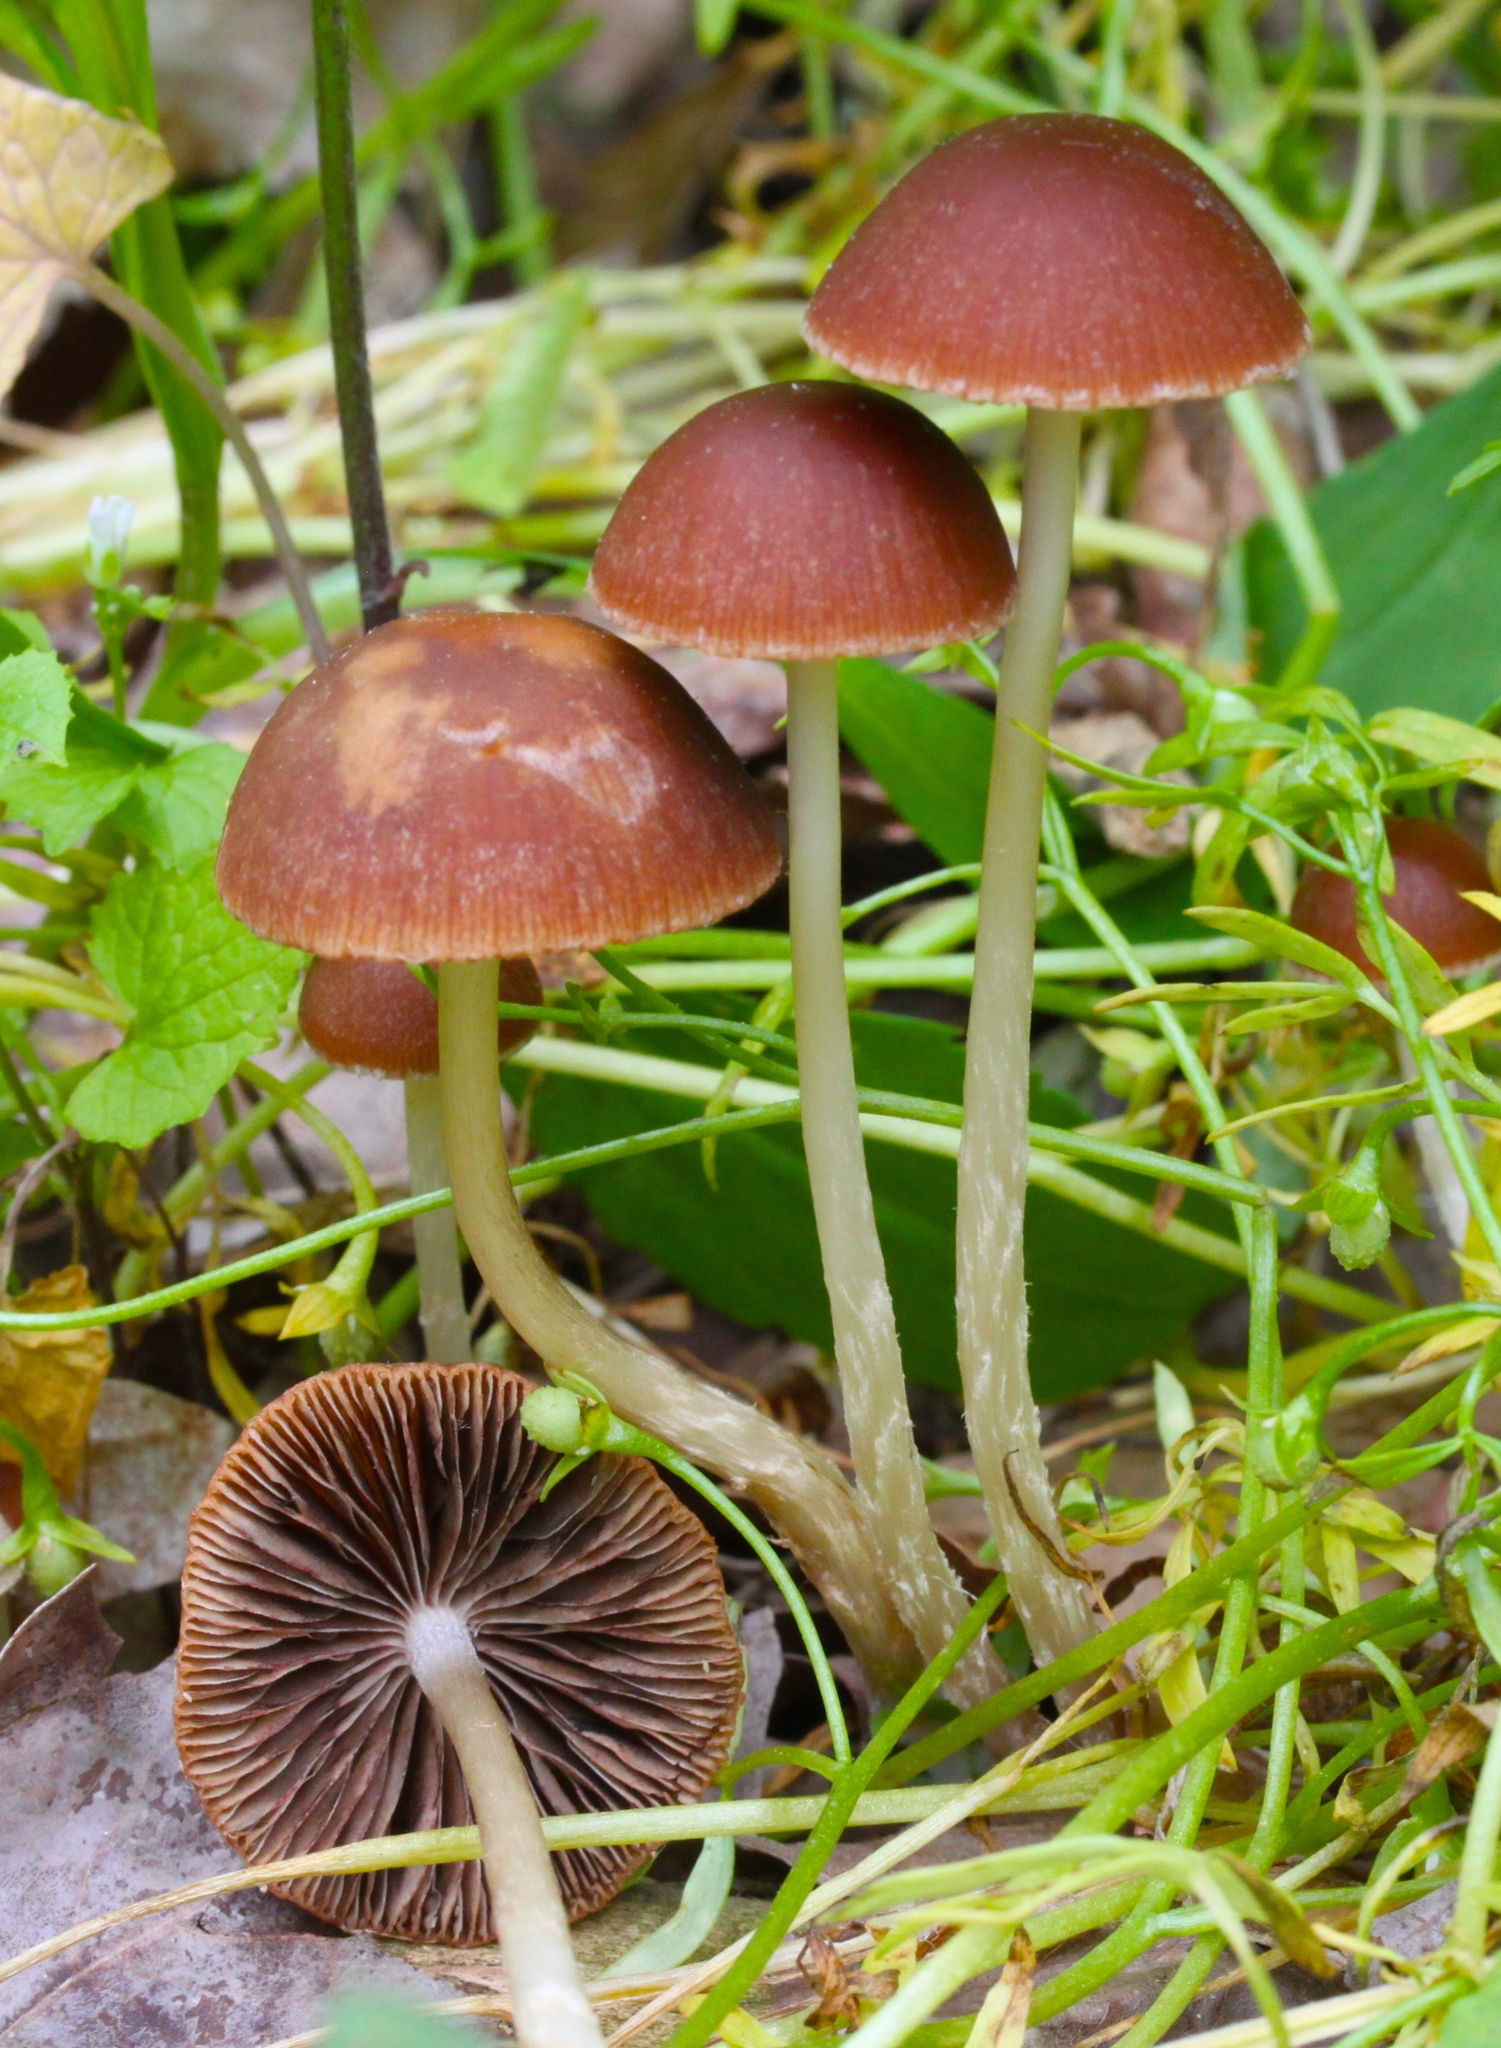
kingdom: Fungi
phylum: Basidiomycota
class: Agaricomycetes
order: Agaricales
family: Psathyrellaceae
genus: Psathyrella
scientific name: Psathyrella corrugis
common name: Red edge brittlestem
